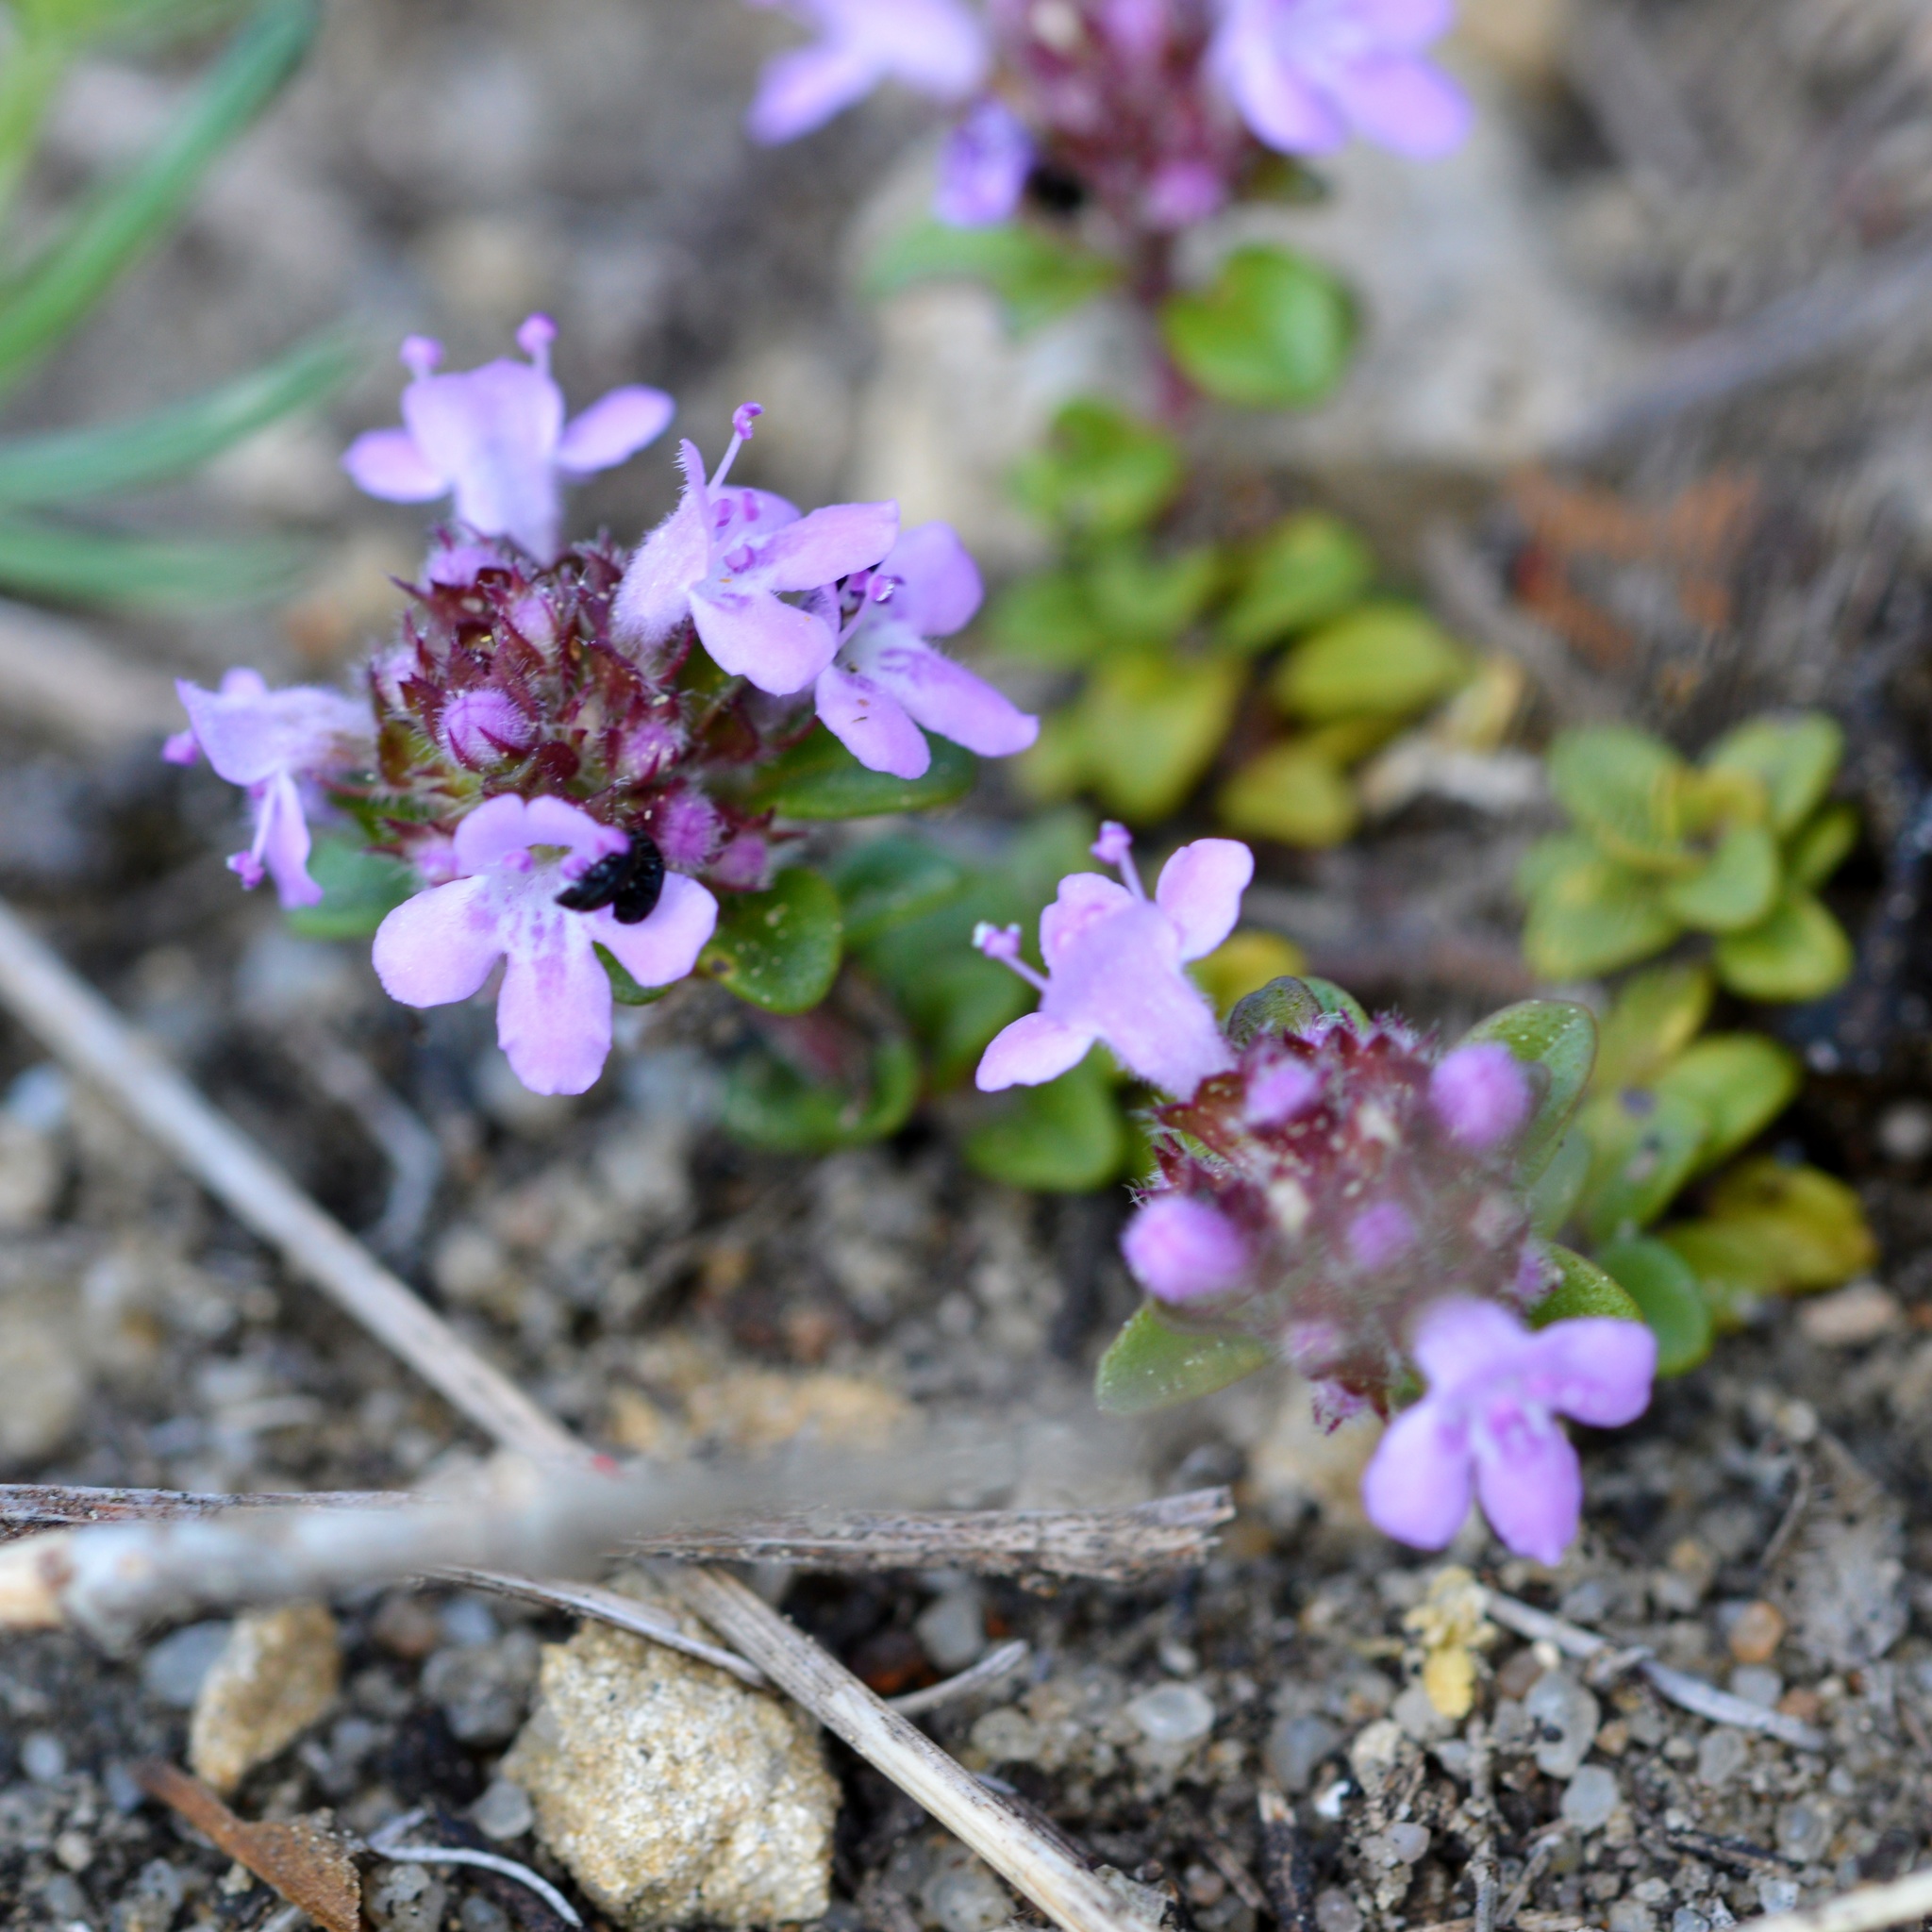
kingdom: Plantae
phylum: Tracheophyta
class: Magnoliopsida
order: Lamiales
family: Lamiaceae
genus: Thymus
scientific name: Thymus praecox
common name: Wild thyme
